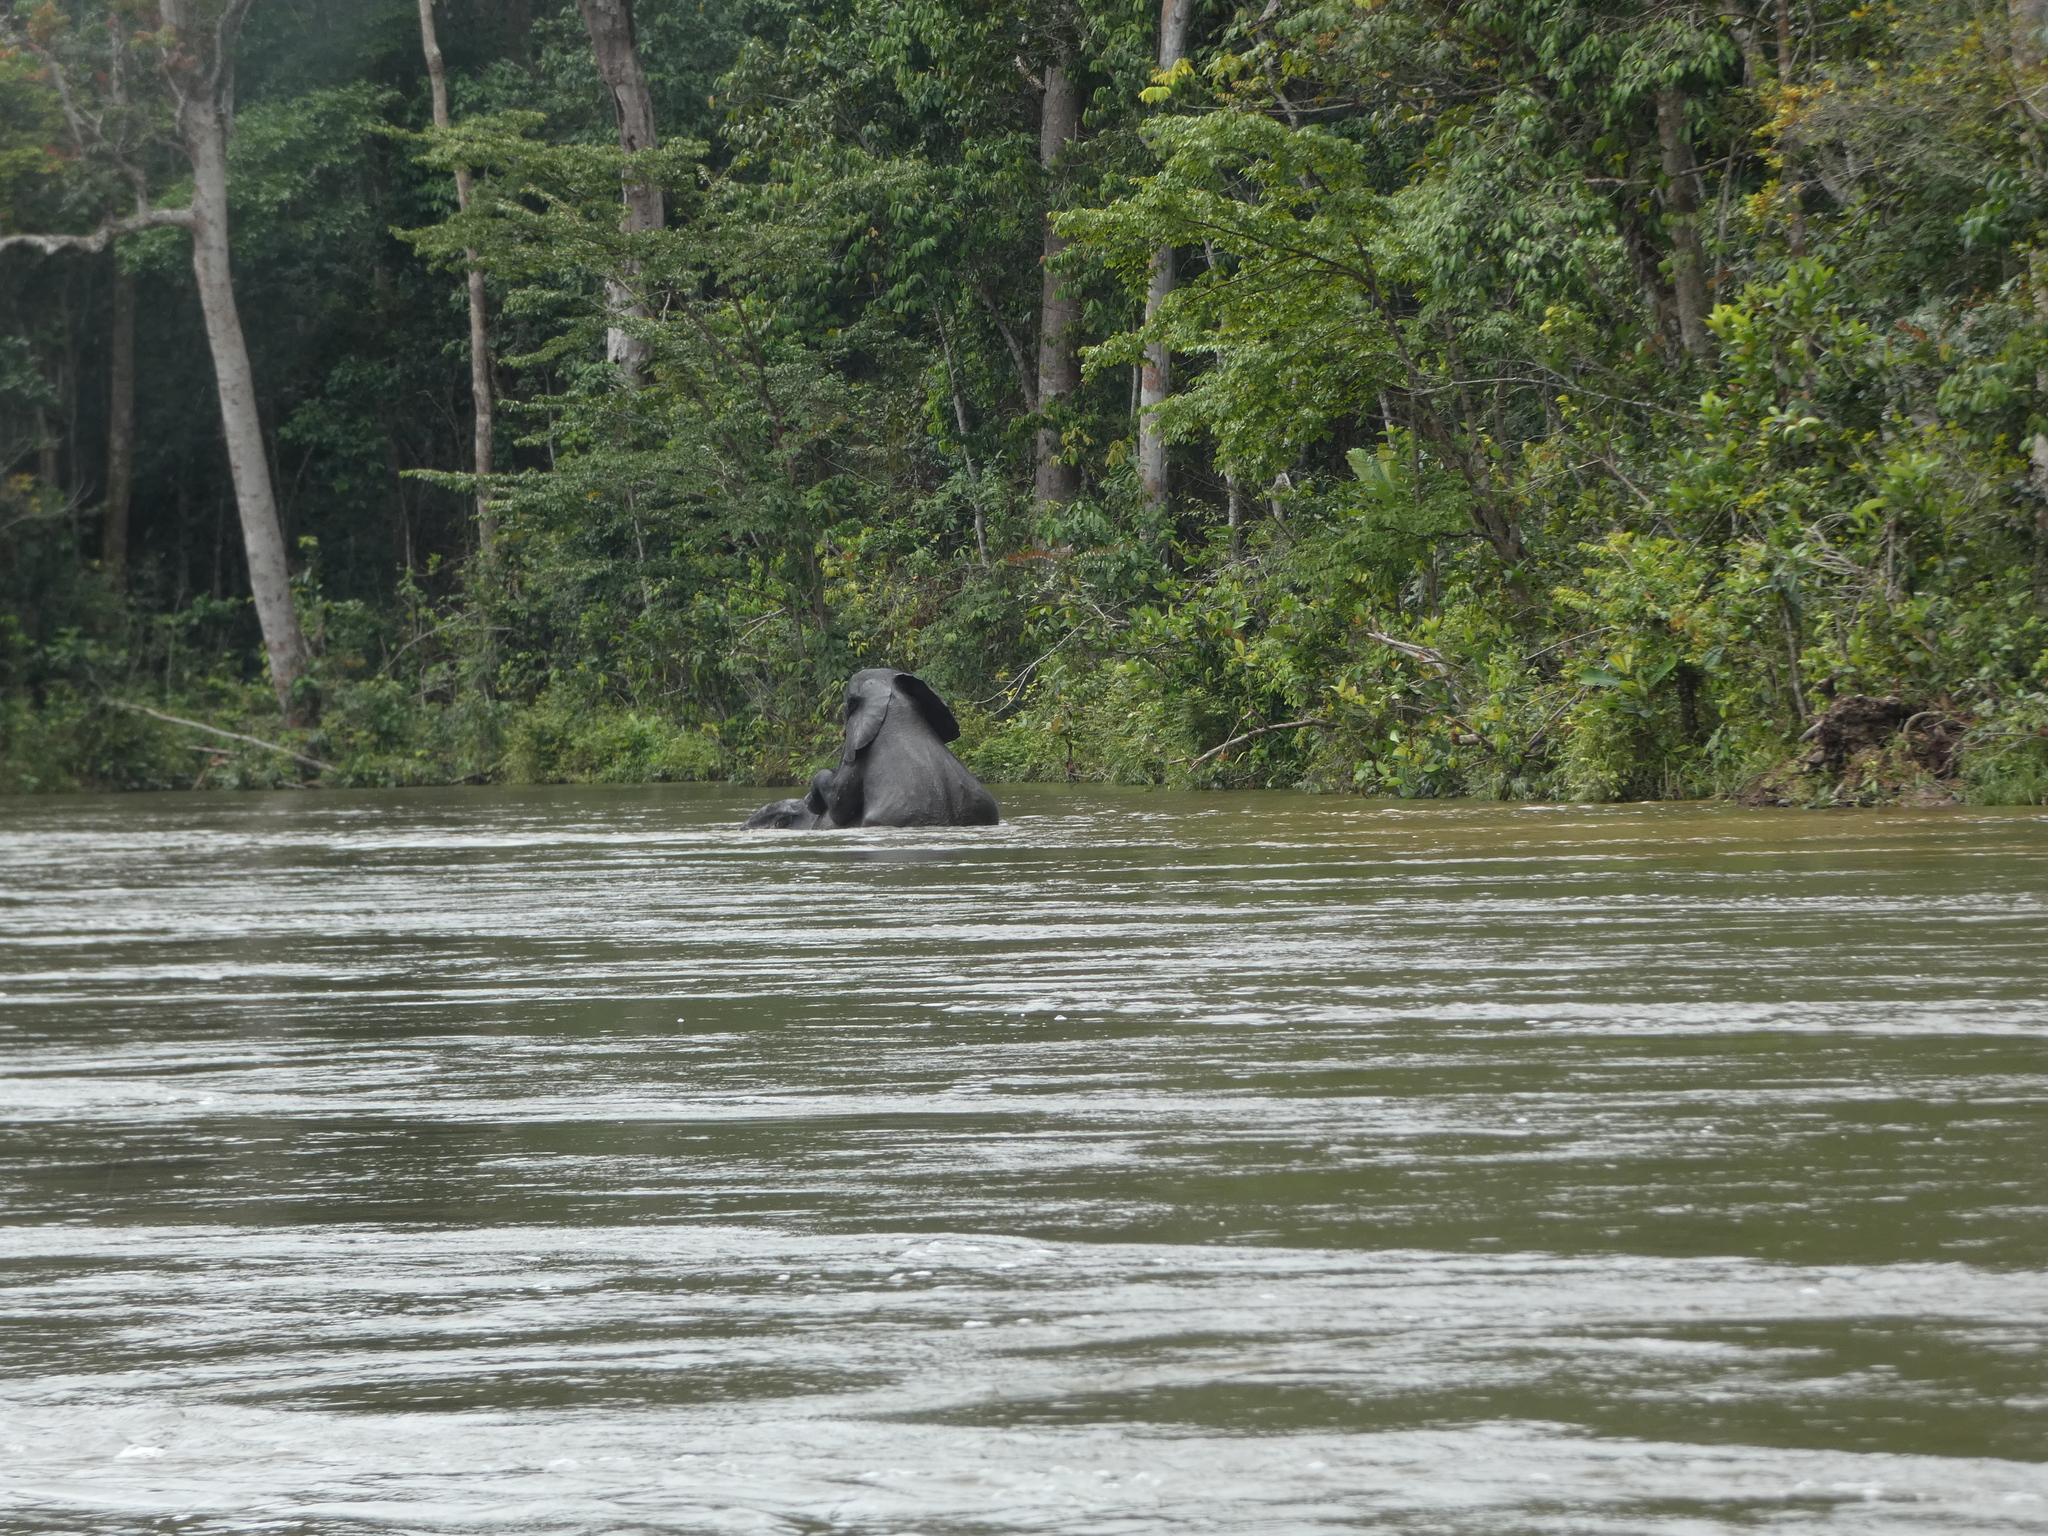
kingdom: Animalia
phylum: Chordata
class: Mammalia
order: Proboscidea
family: Elephantidae
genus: Loxodonta
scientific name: Loxodonta cyclotis
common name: African forest elephant
